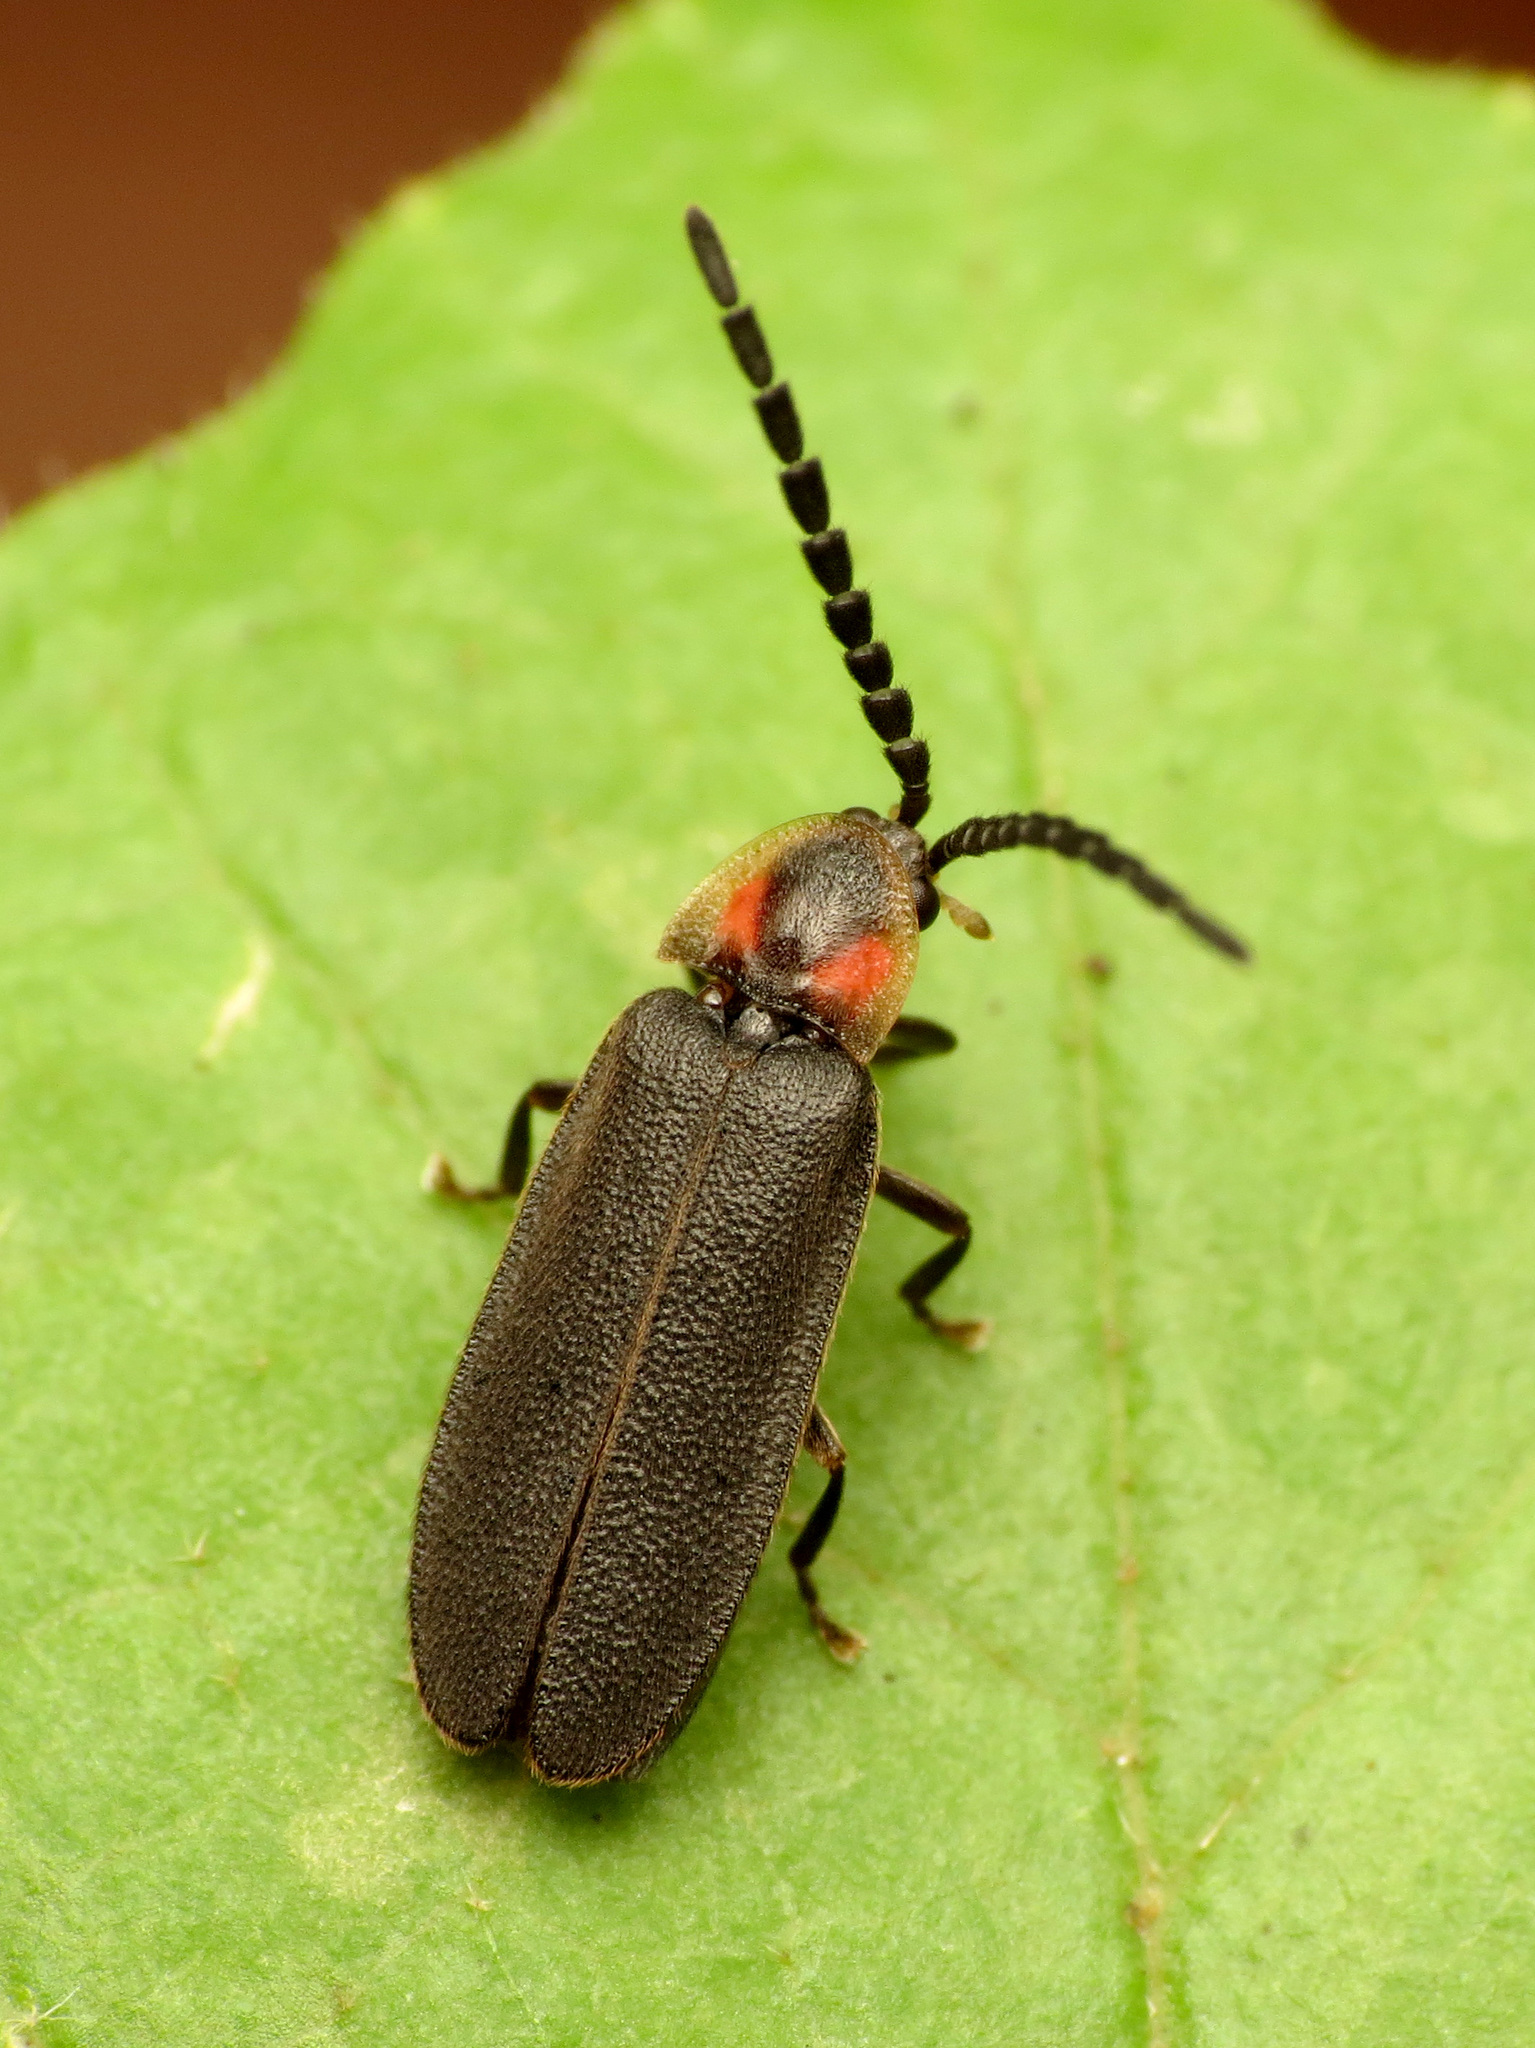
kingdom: Animalia
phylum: Arthropoda
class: Insecta
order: Coleoptera
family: Lampyridae
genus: Lucidota
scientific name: Lucidota punctata
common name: Dotted firefly
